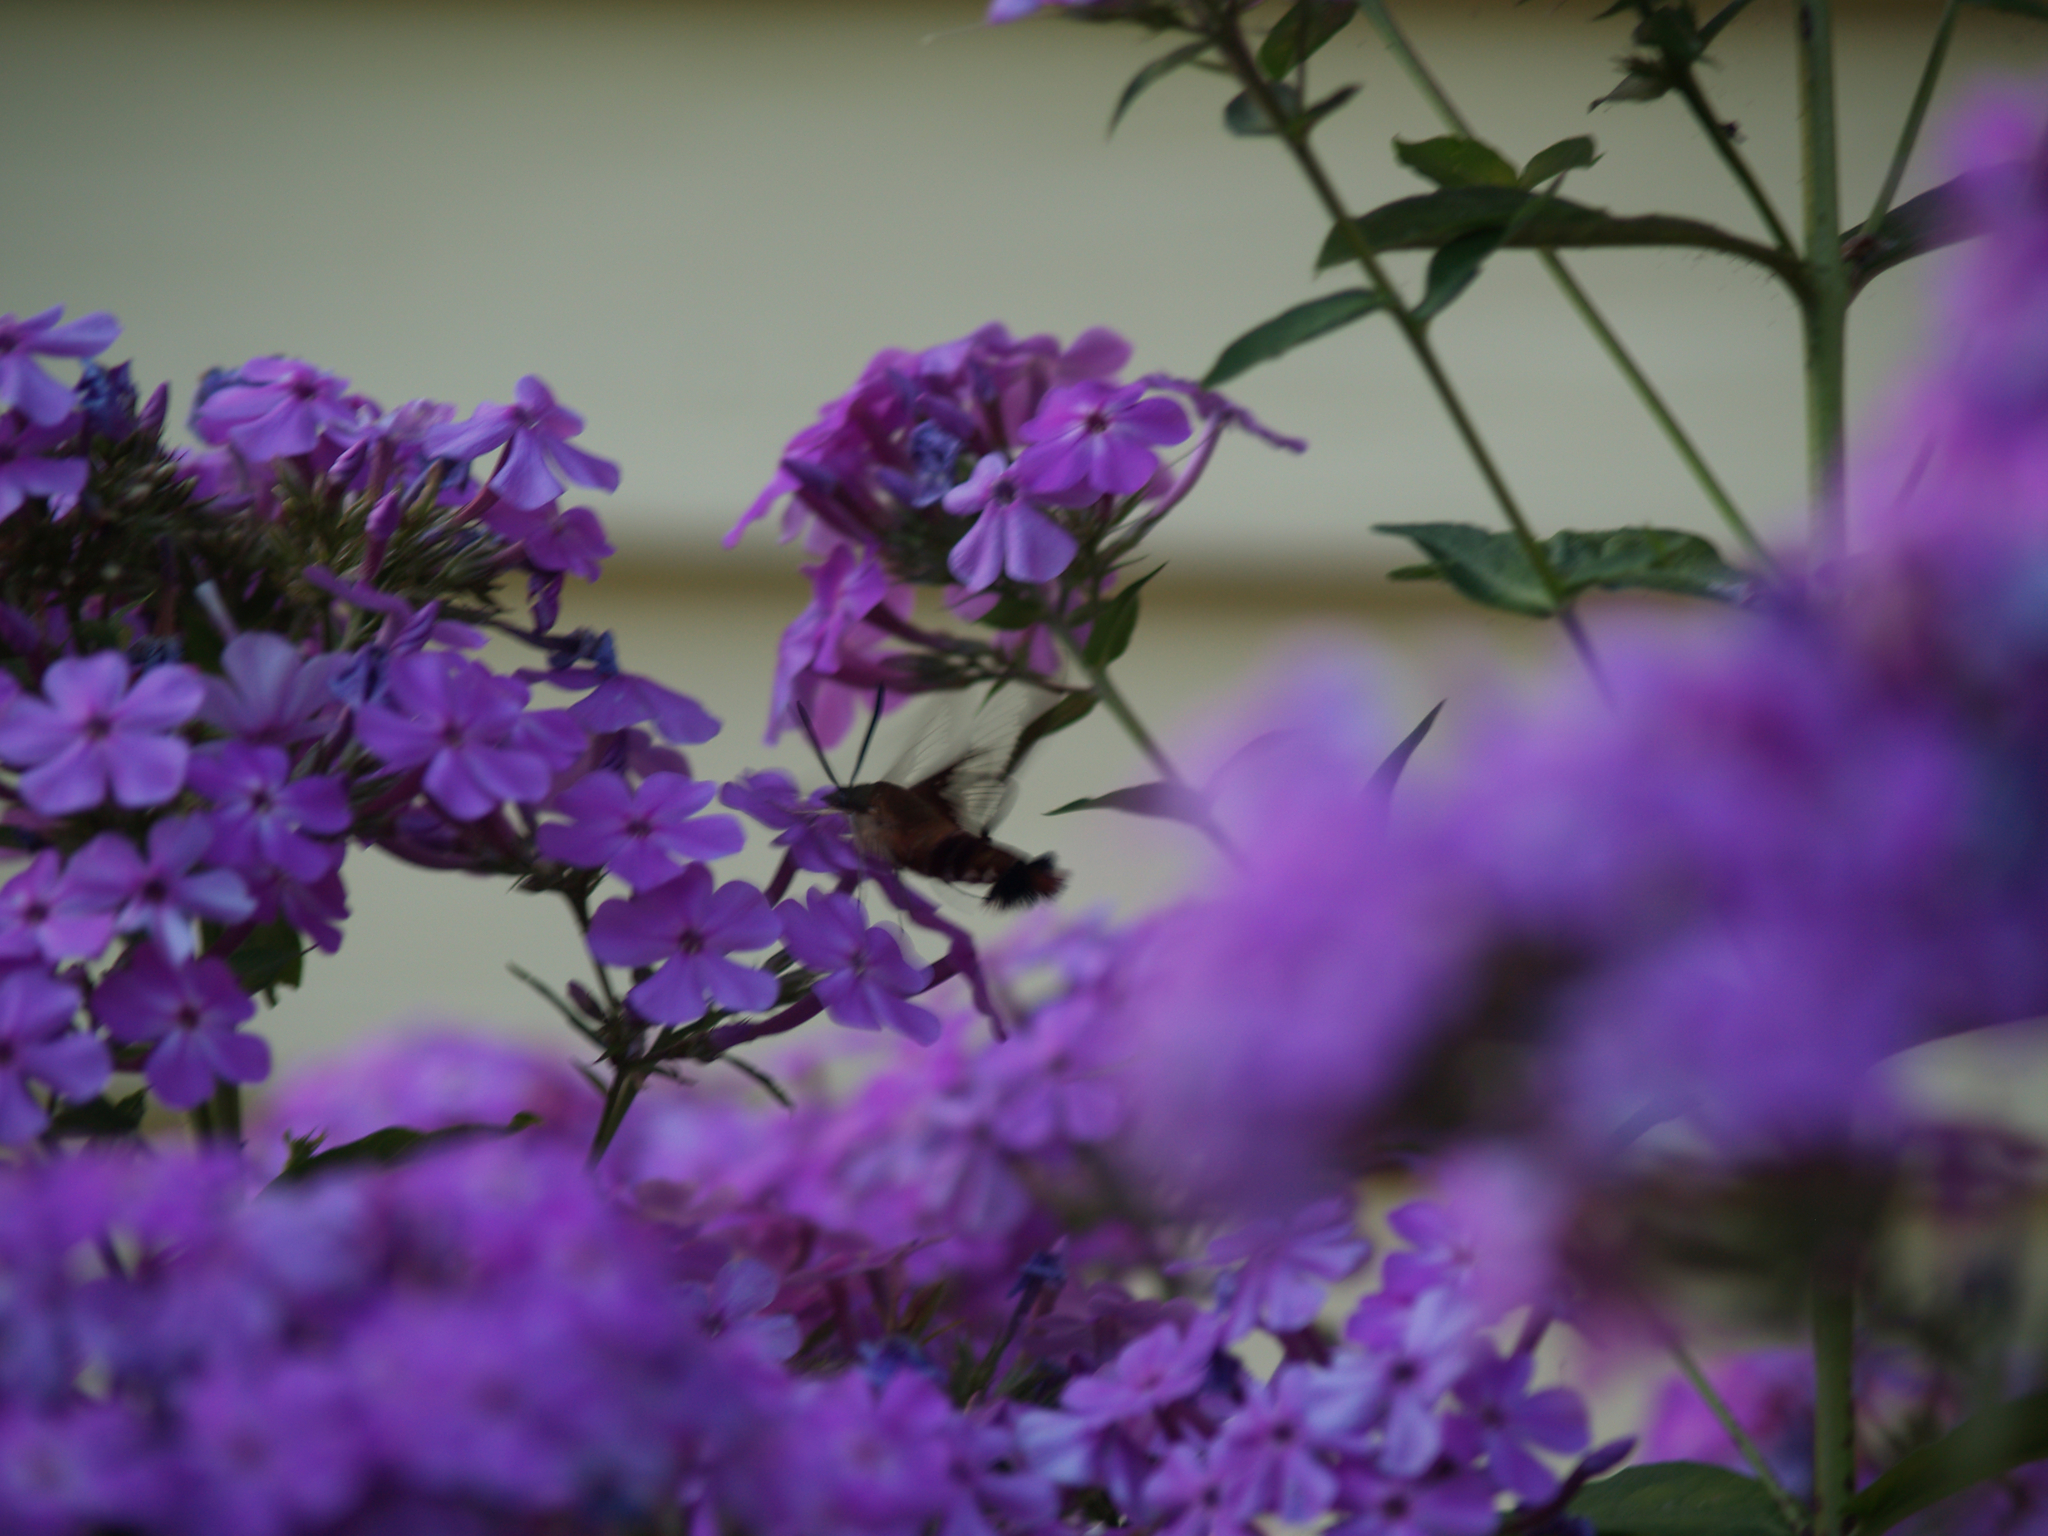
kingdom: Animalia
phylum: Arthropoda
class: Insecta
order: Lepidoptera
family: Sphingidae
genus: Hemaris
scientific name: Hemaris thysbe
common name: Common clear-wing
